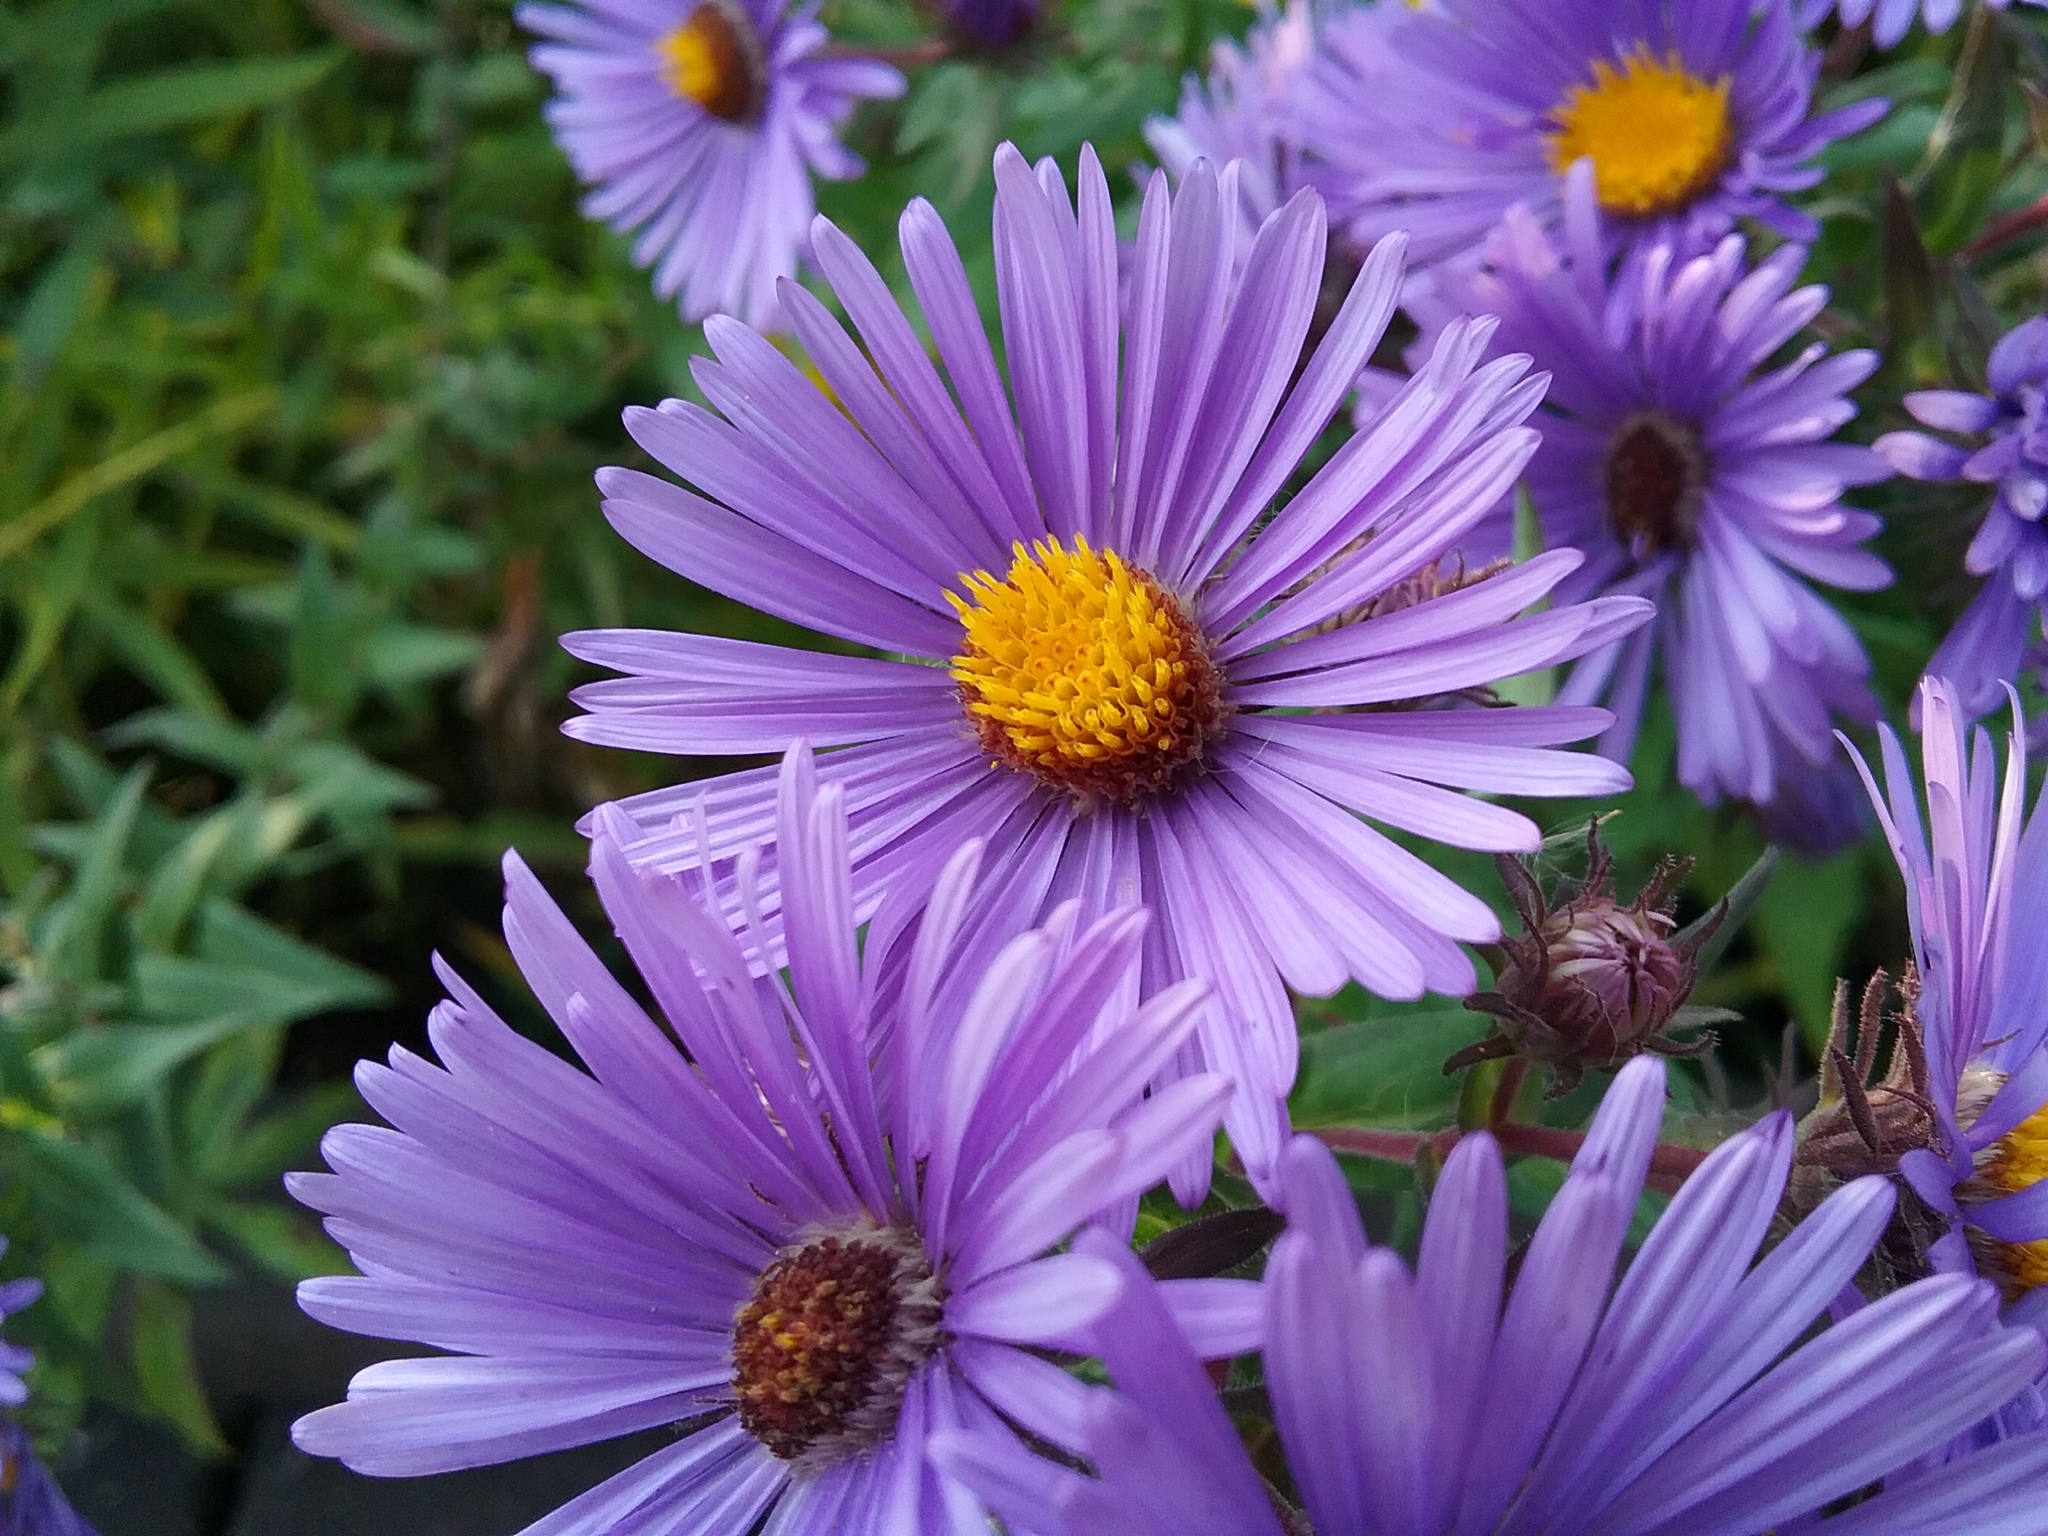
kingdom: Plantae
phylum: Tracheophyta
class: Magnoliopsida
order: Asterales
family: Asteraceae
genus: Symphyotrichum
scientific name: Symphyotrichum novae-angliae
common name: Michaelmas daisy
